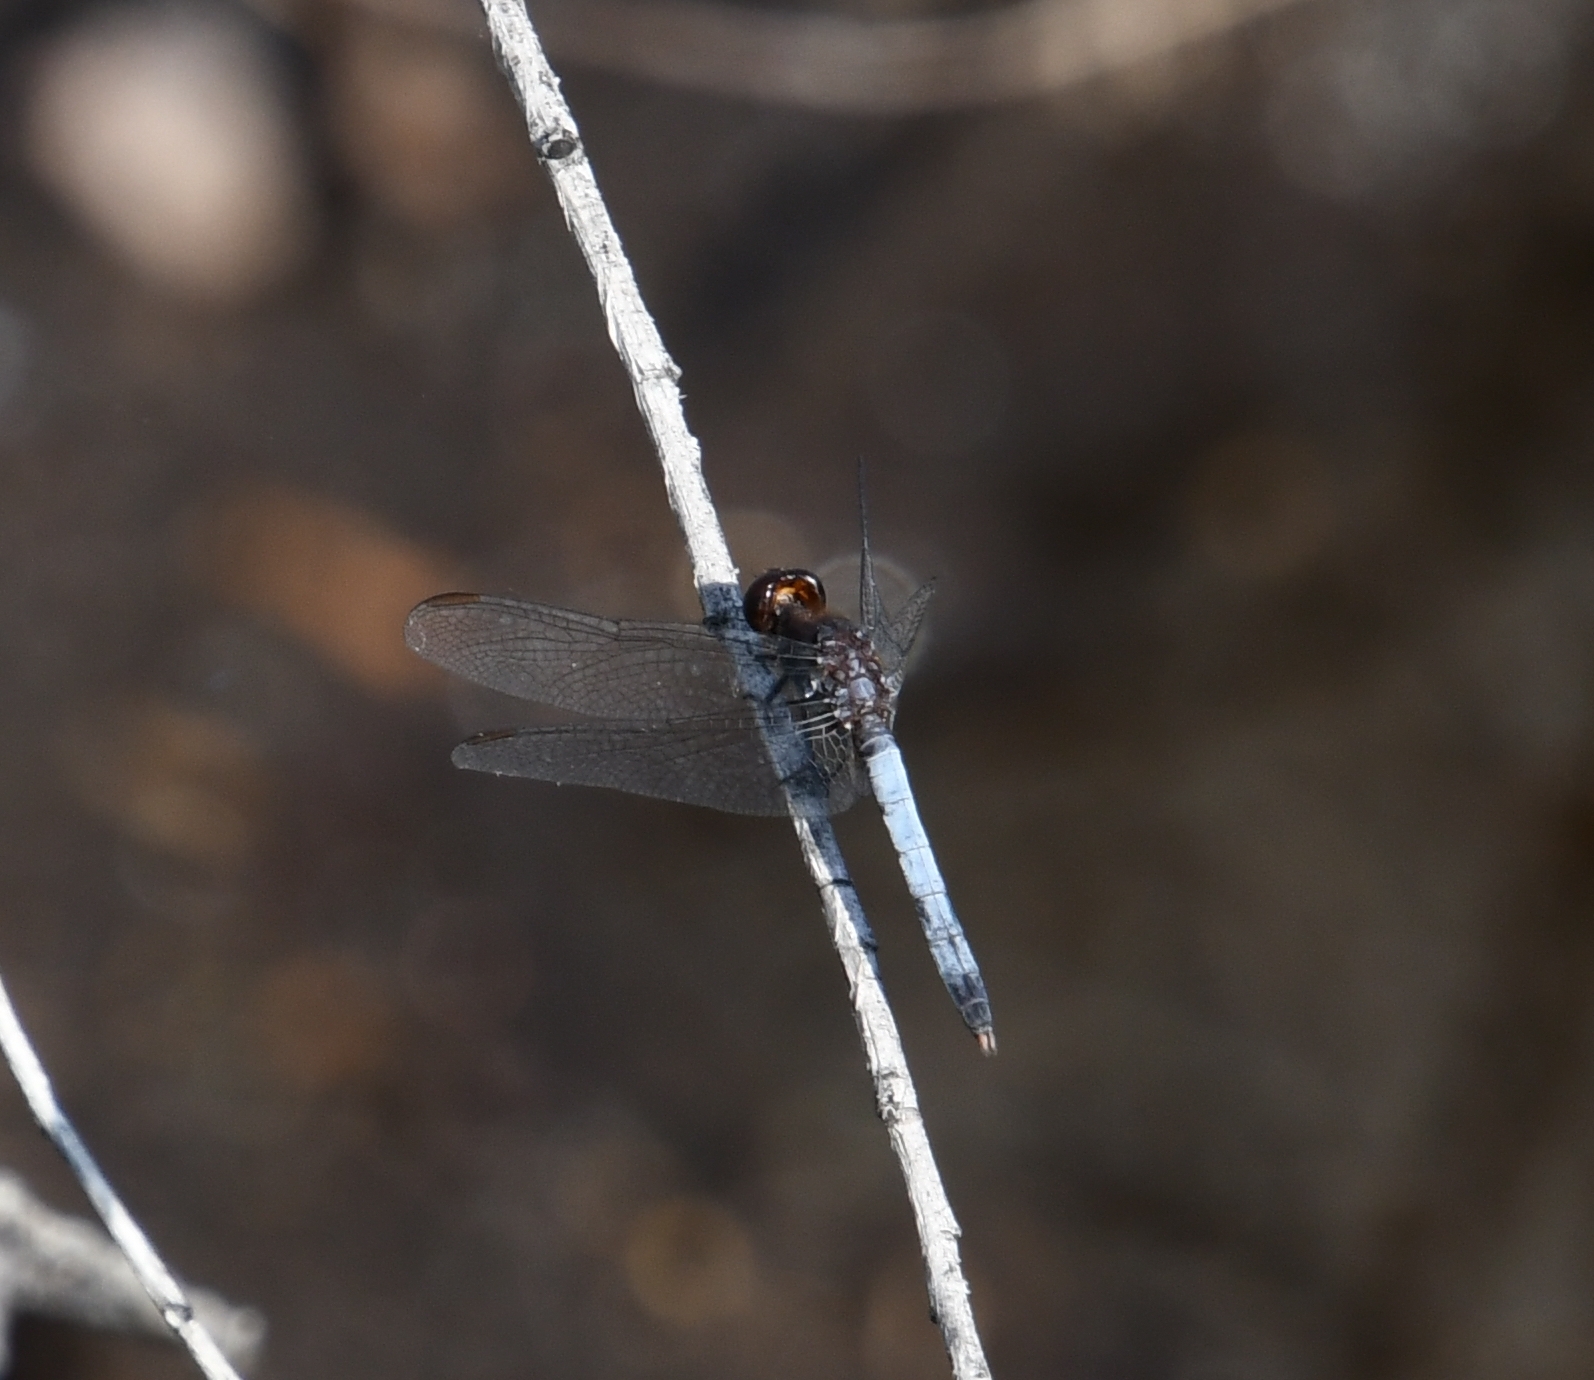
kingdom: Animalia
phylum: Arthropoda
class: Insecta
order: Odonata
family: Libellulidae
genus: Erythrodiplax
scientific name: Erythrodiplax basifusca
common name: Plateau dragonlet
